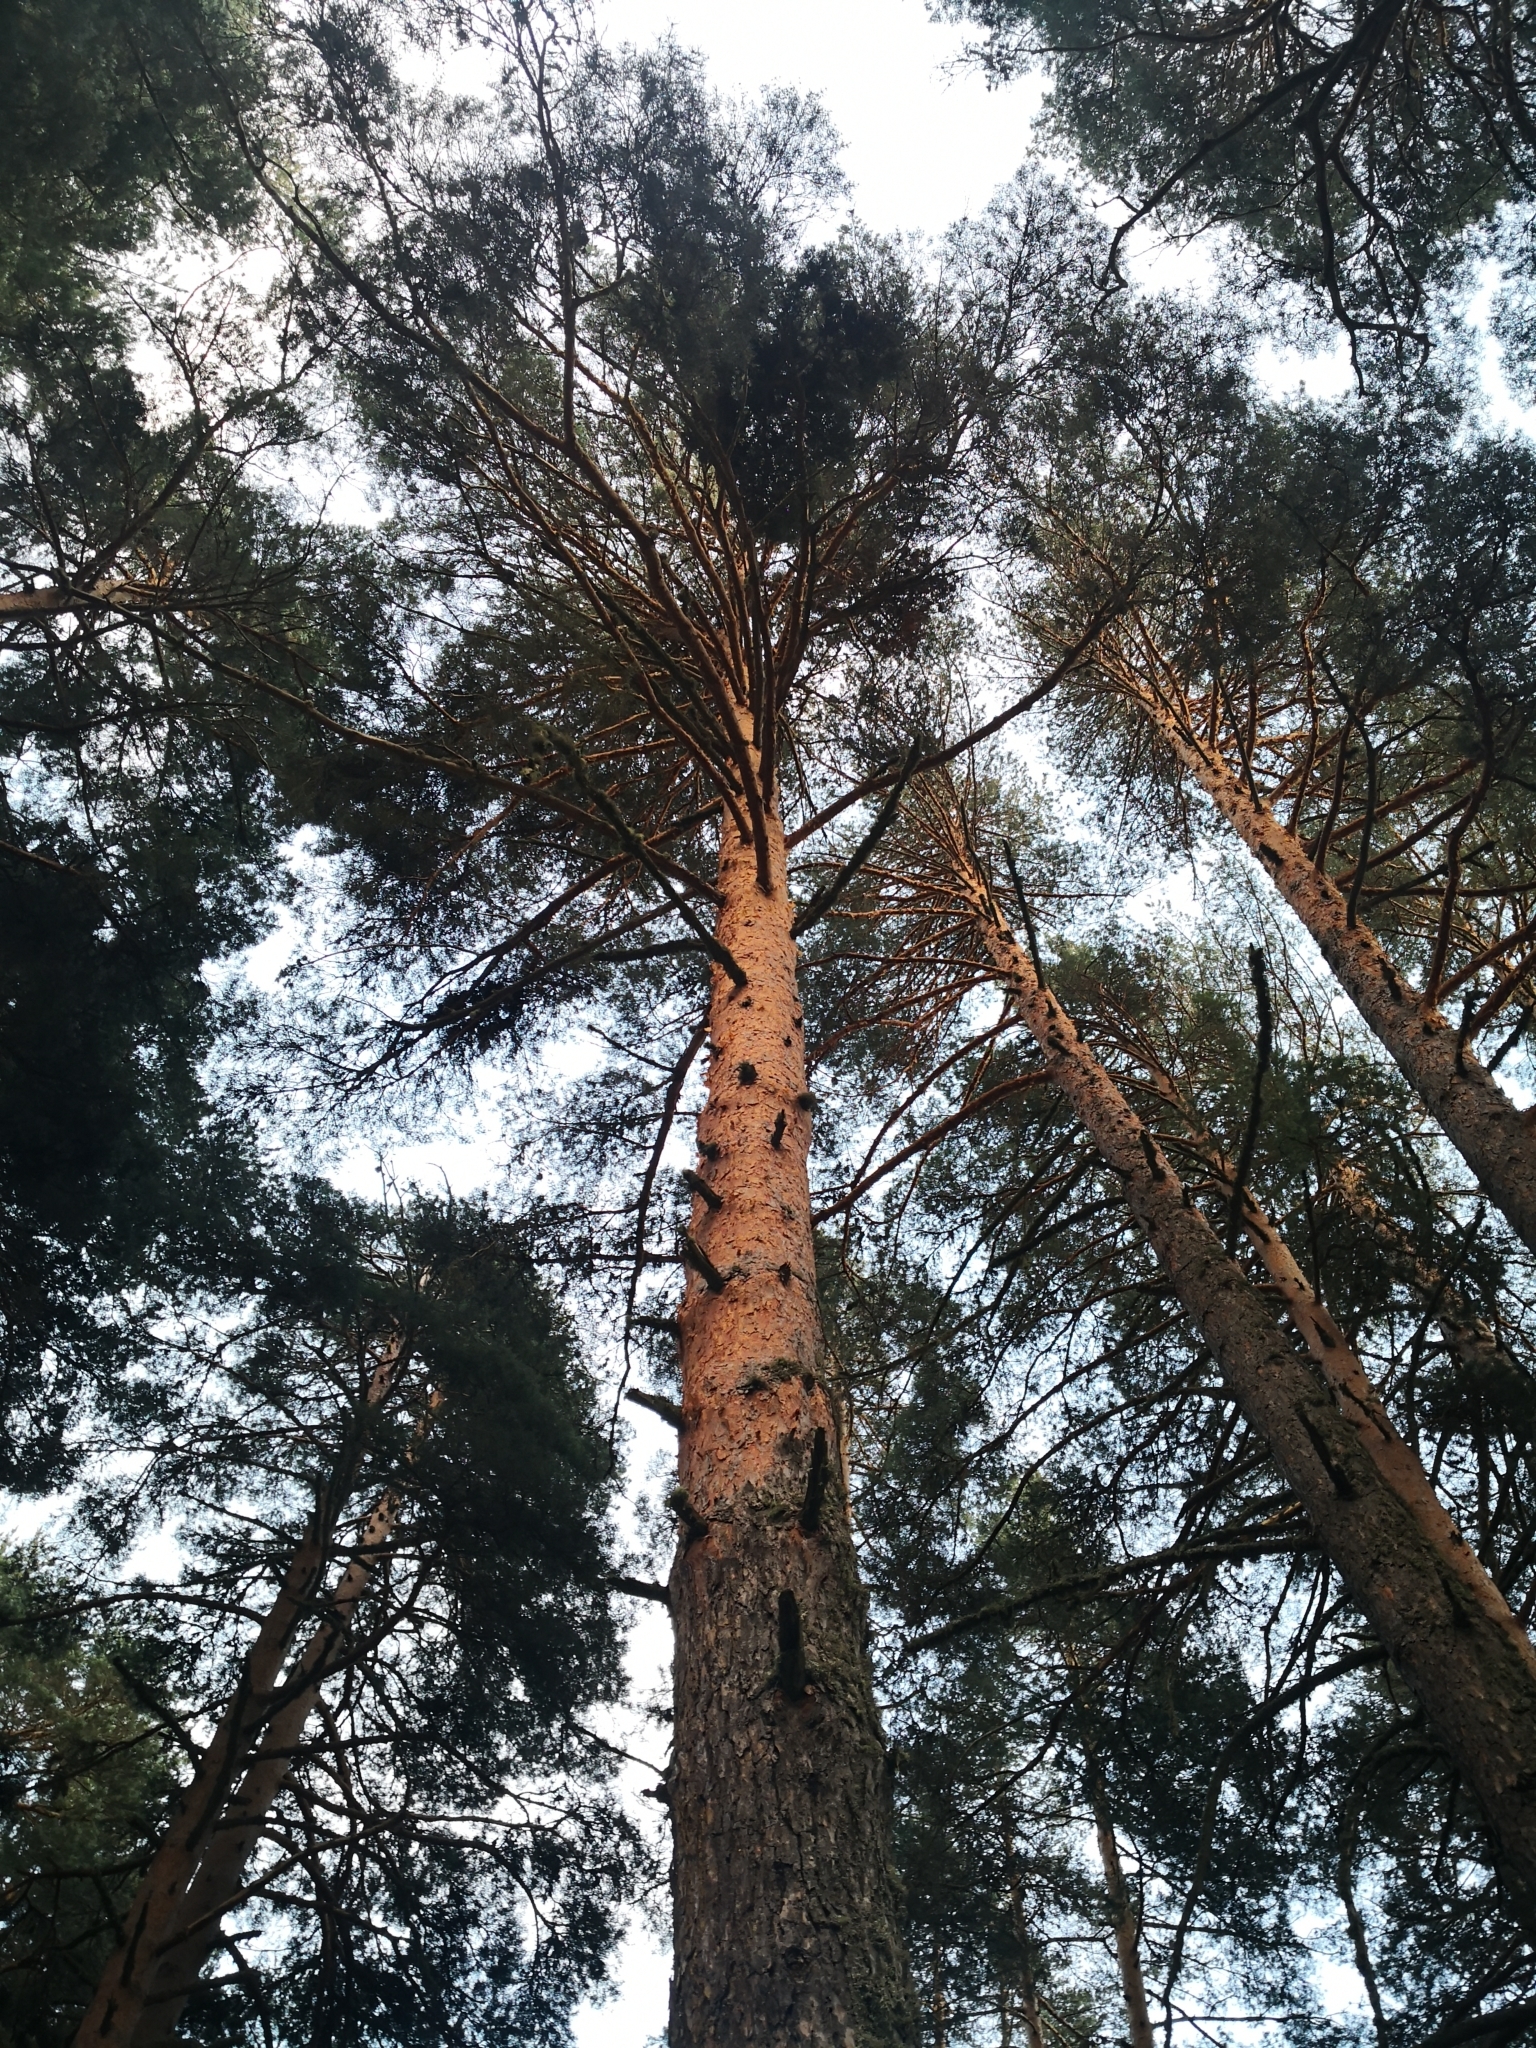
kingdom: Plantae
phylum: Tracheophyta
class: Pinopsida
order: Pinales
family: Pinaceae
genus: Pinus
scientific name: Pinus sylvestris
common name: Scots pine
